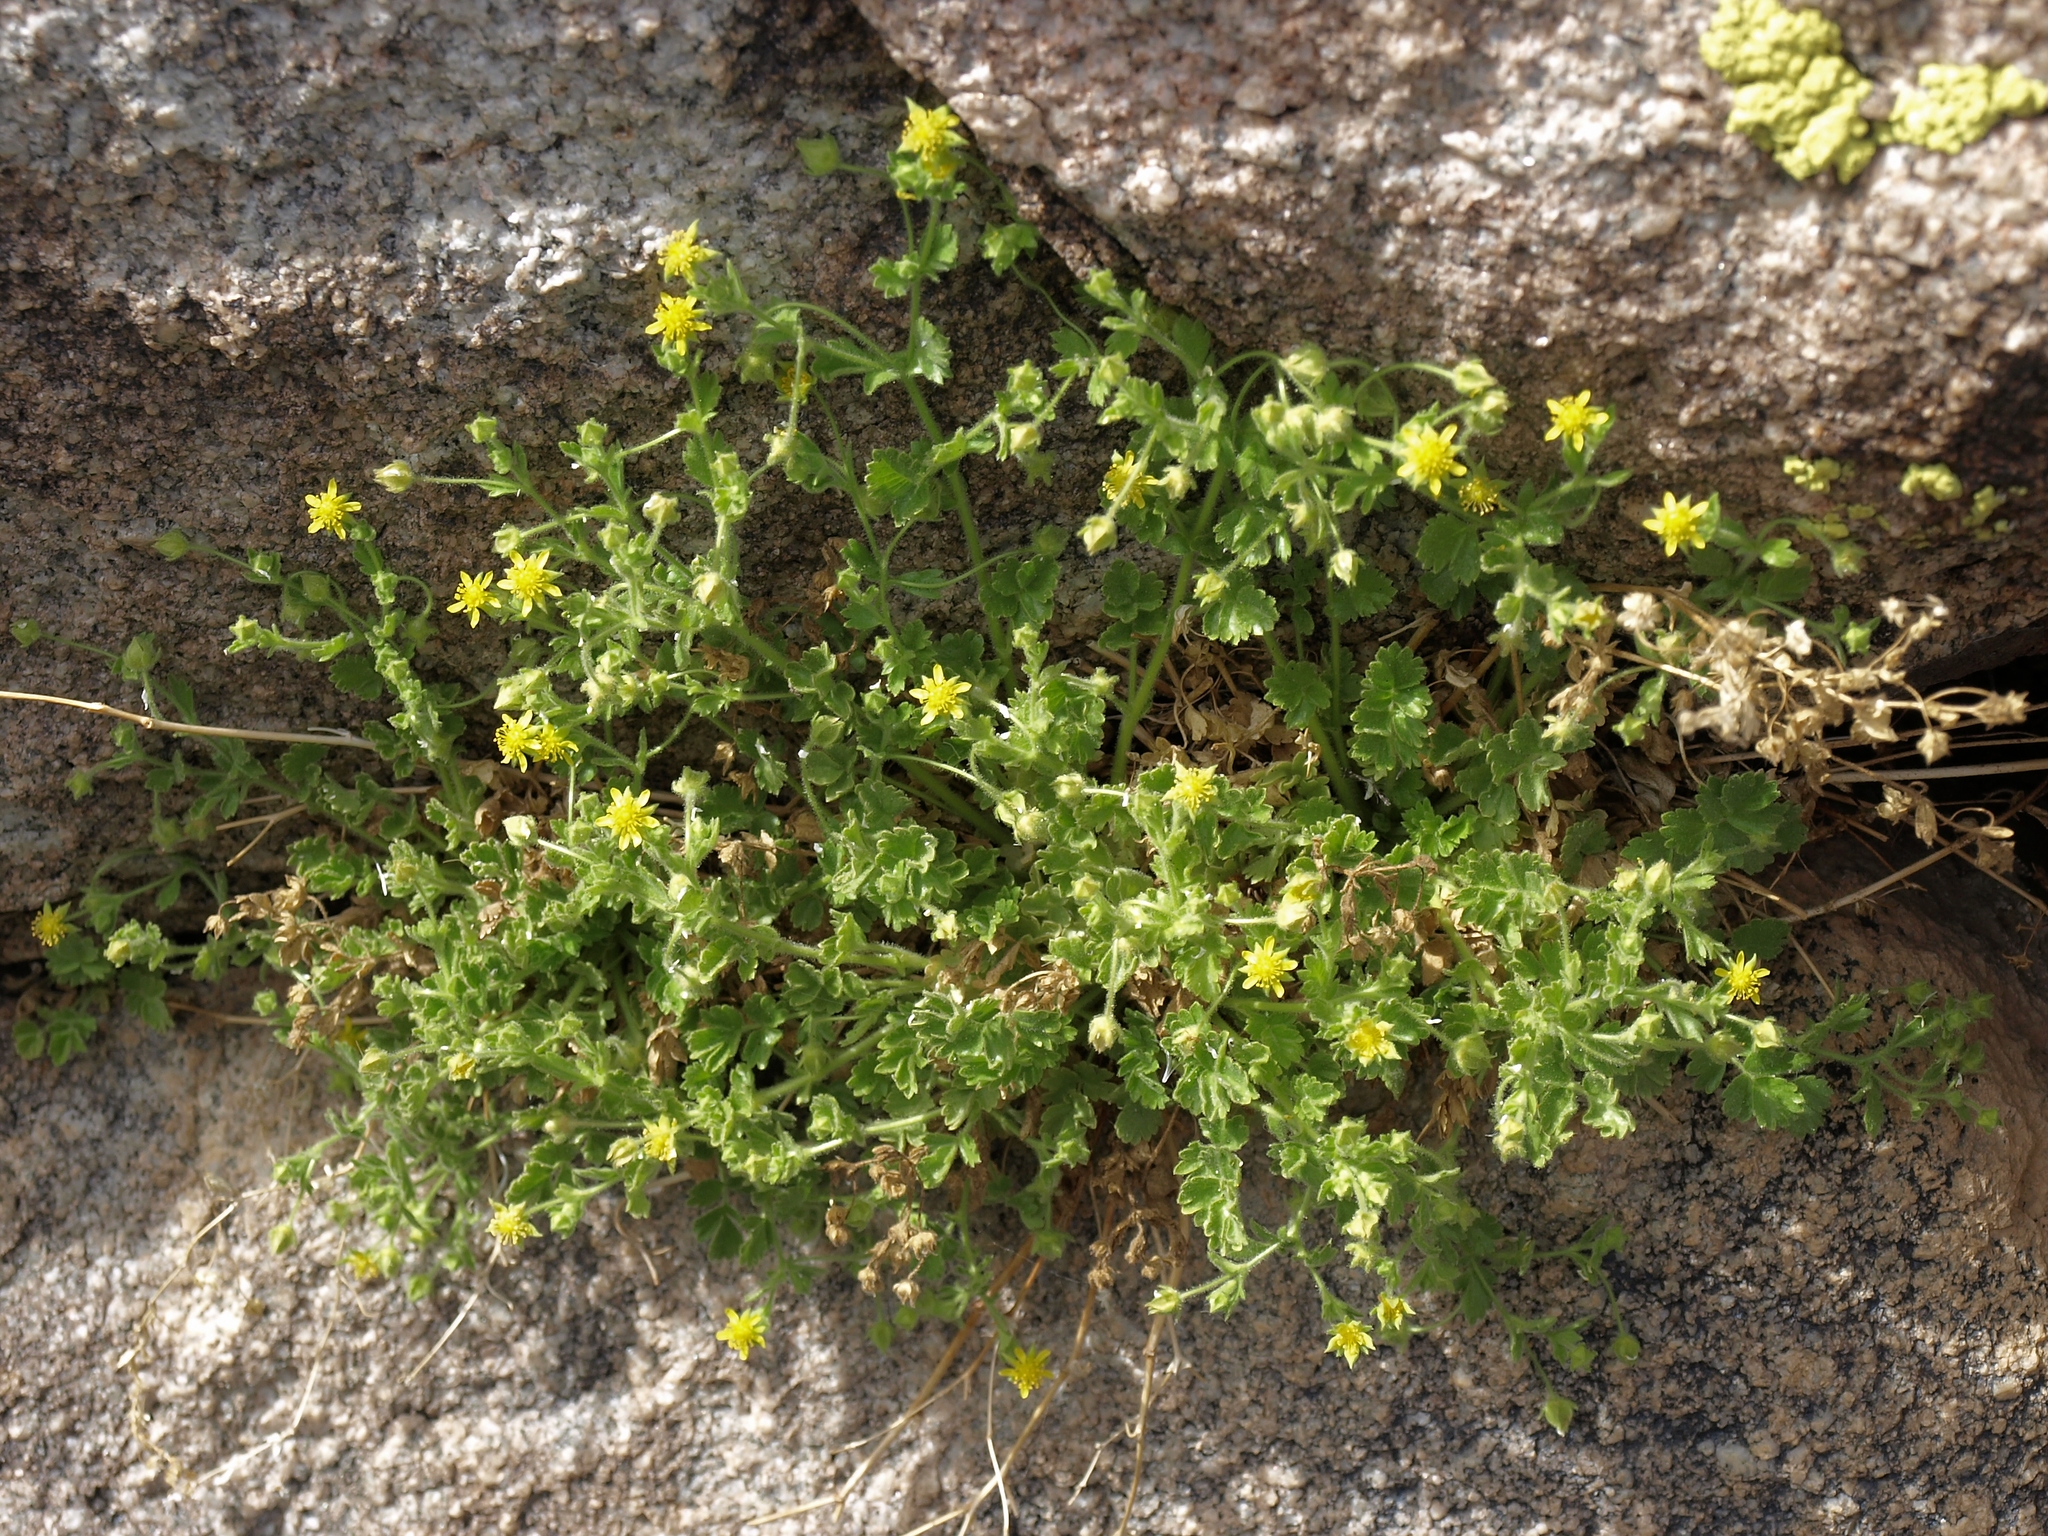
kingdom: Plantae
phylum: Tracheophyta
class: Magnoliopsida
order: Rosales
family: Rosaceae
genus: Potentilla
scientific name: Potentilla saxosa
